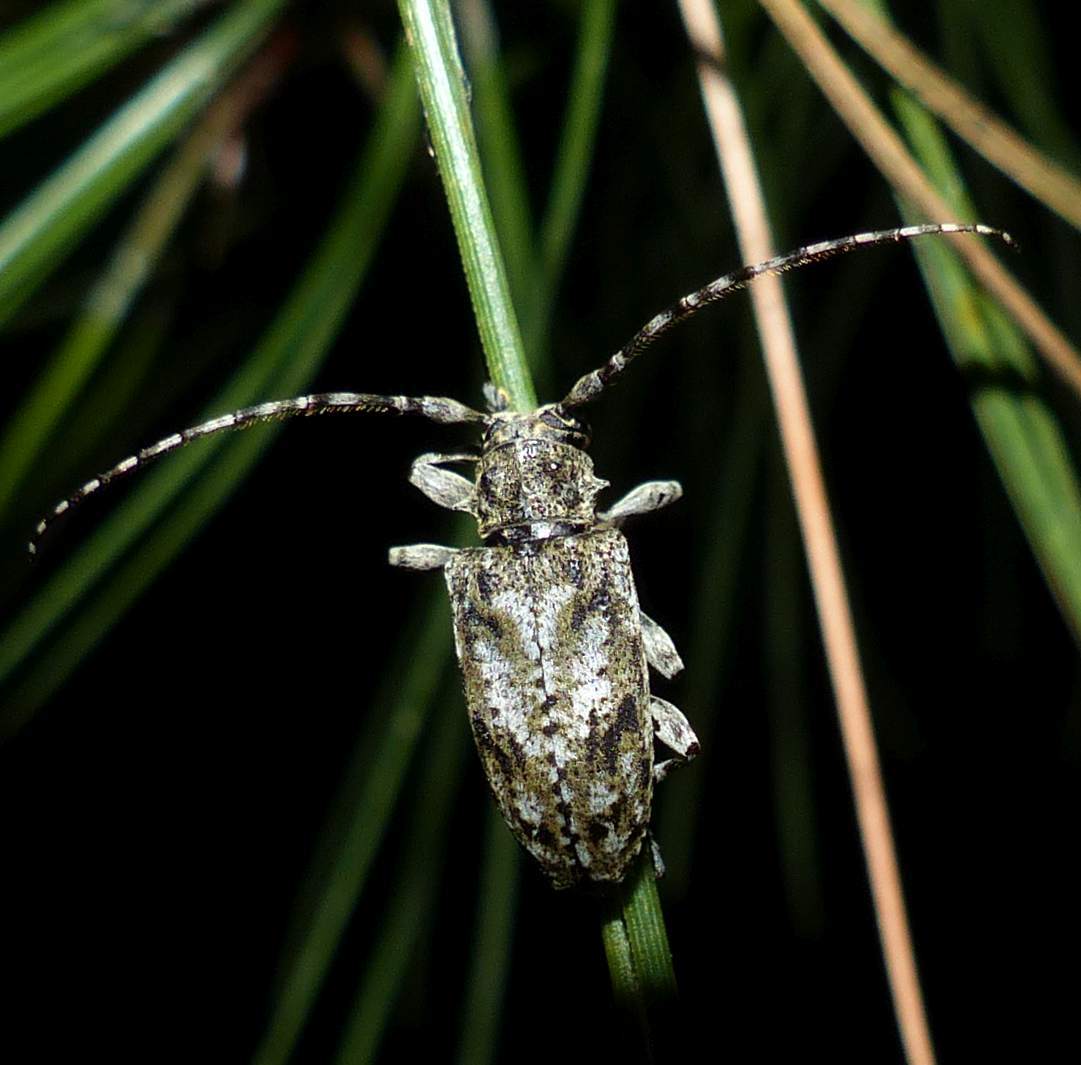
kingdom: Animalia
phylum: Arthropoda
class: Insecta
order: Coleoptera
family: Cerambycidae
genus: Aegomorphus
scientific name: Aegomorphus modestus
